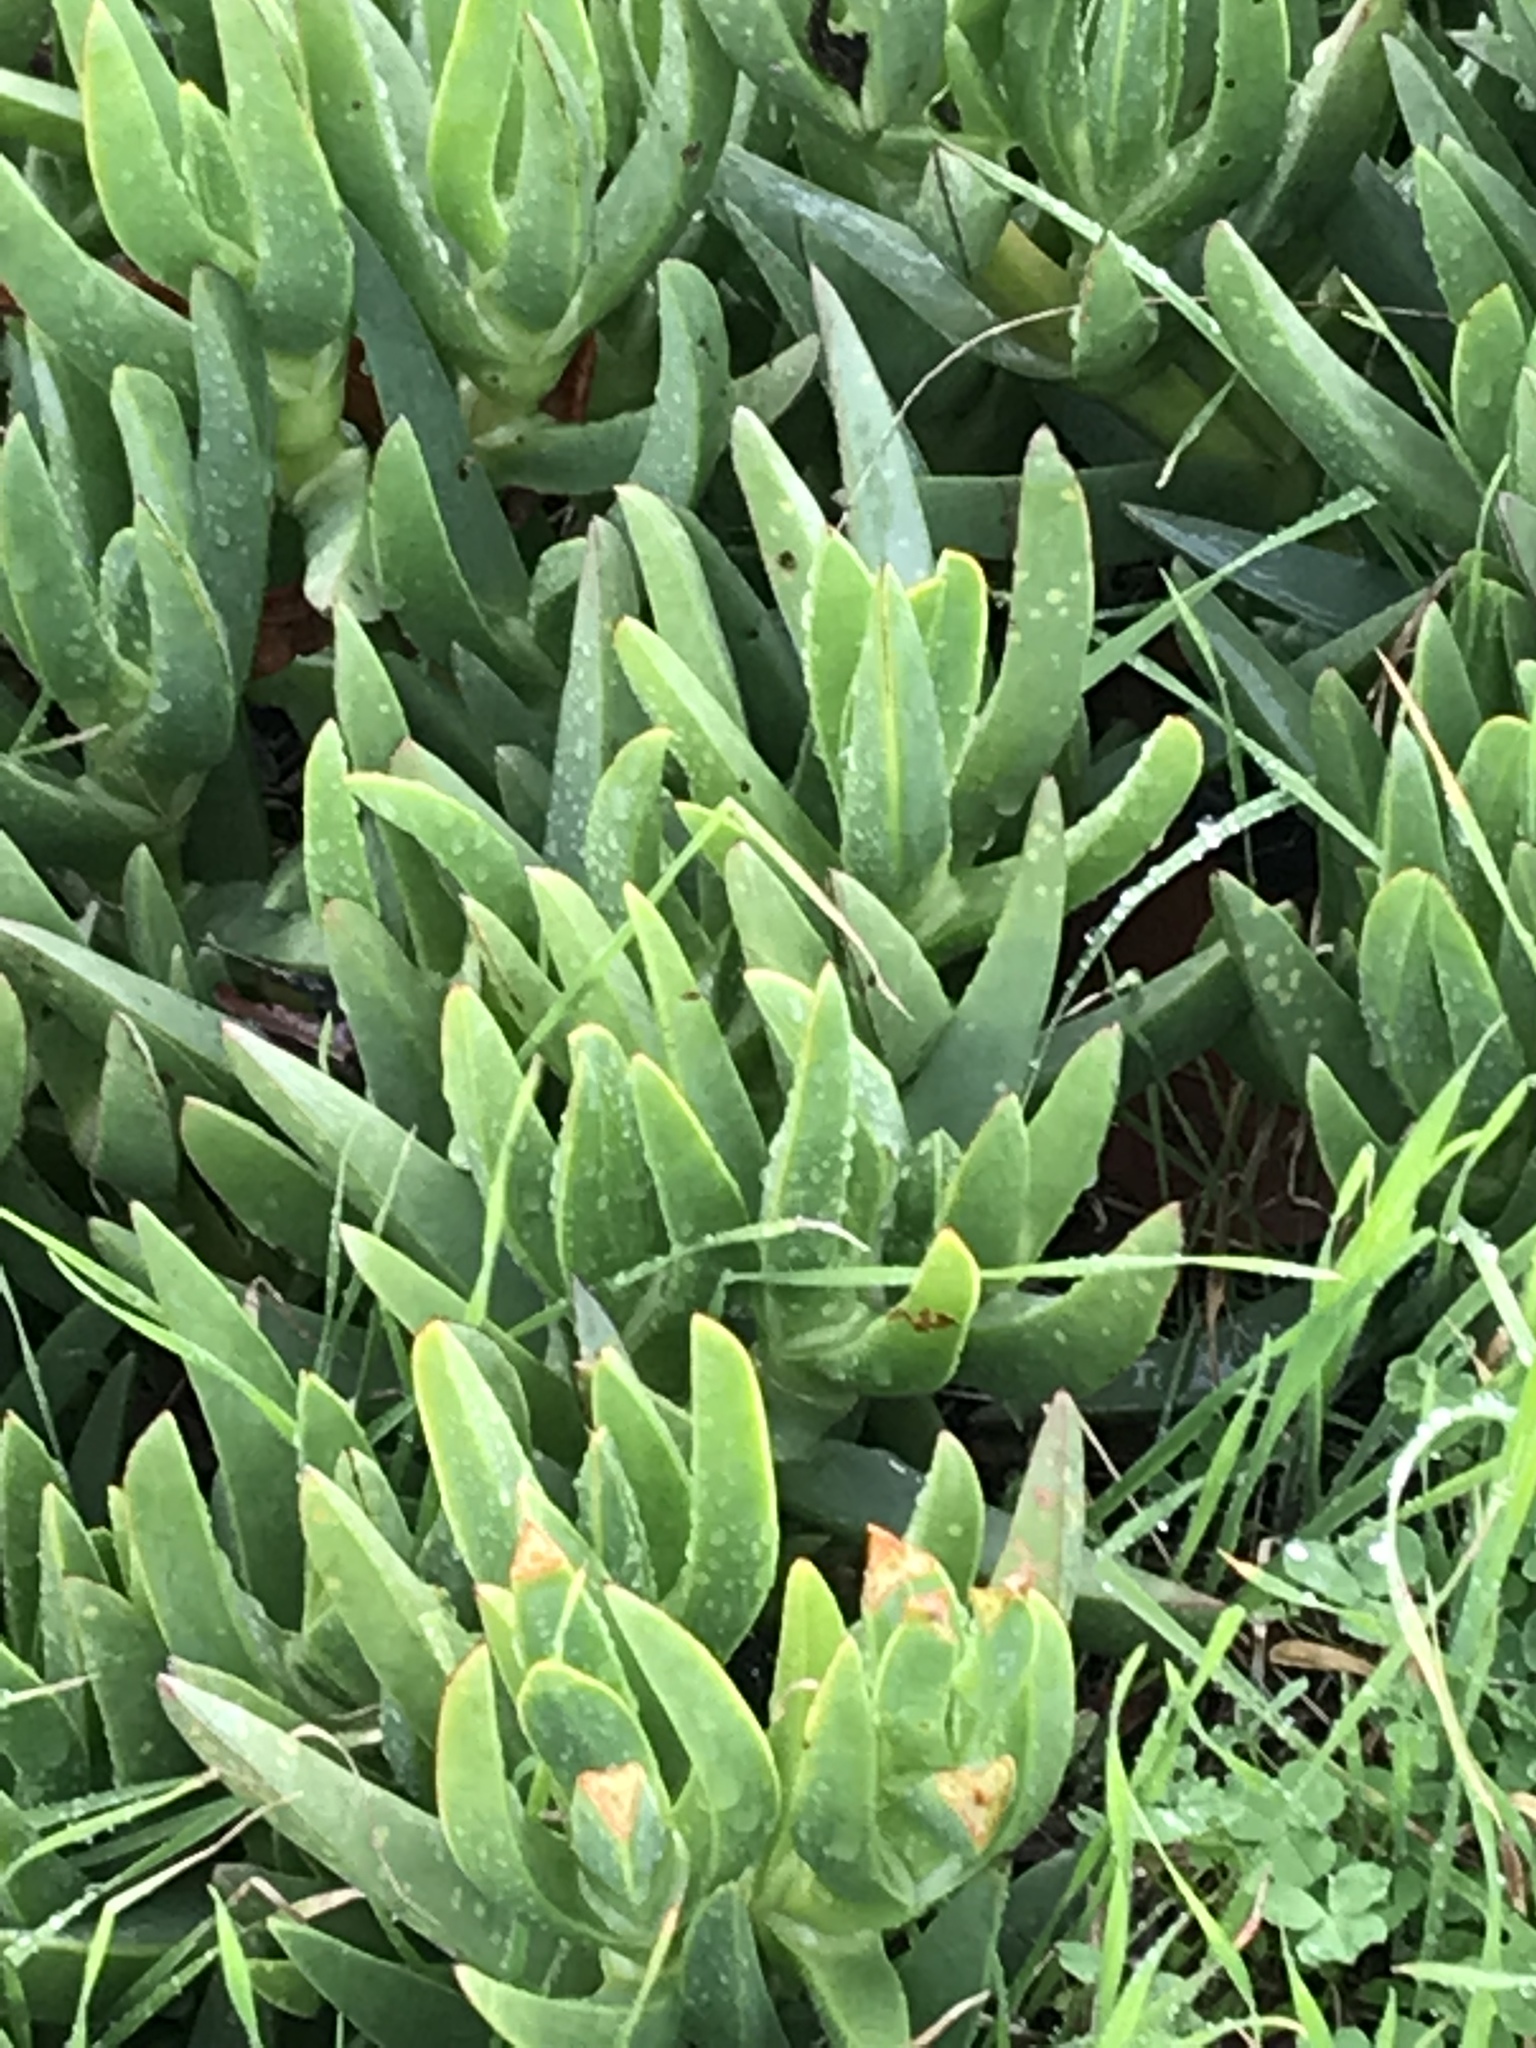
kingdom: Plantae
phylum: Tracheophyta
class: Magnoliopsida
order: Caryophyllales
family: Aizoaceae
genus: Carpobrotus
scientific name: Carpobrotus chilensis
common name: Sea fig
